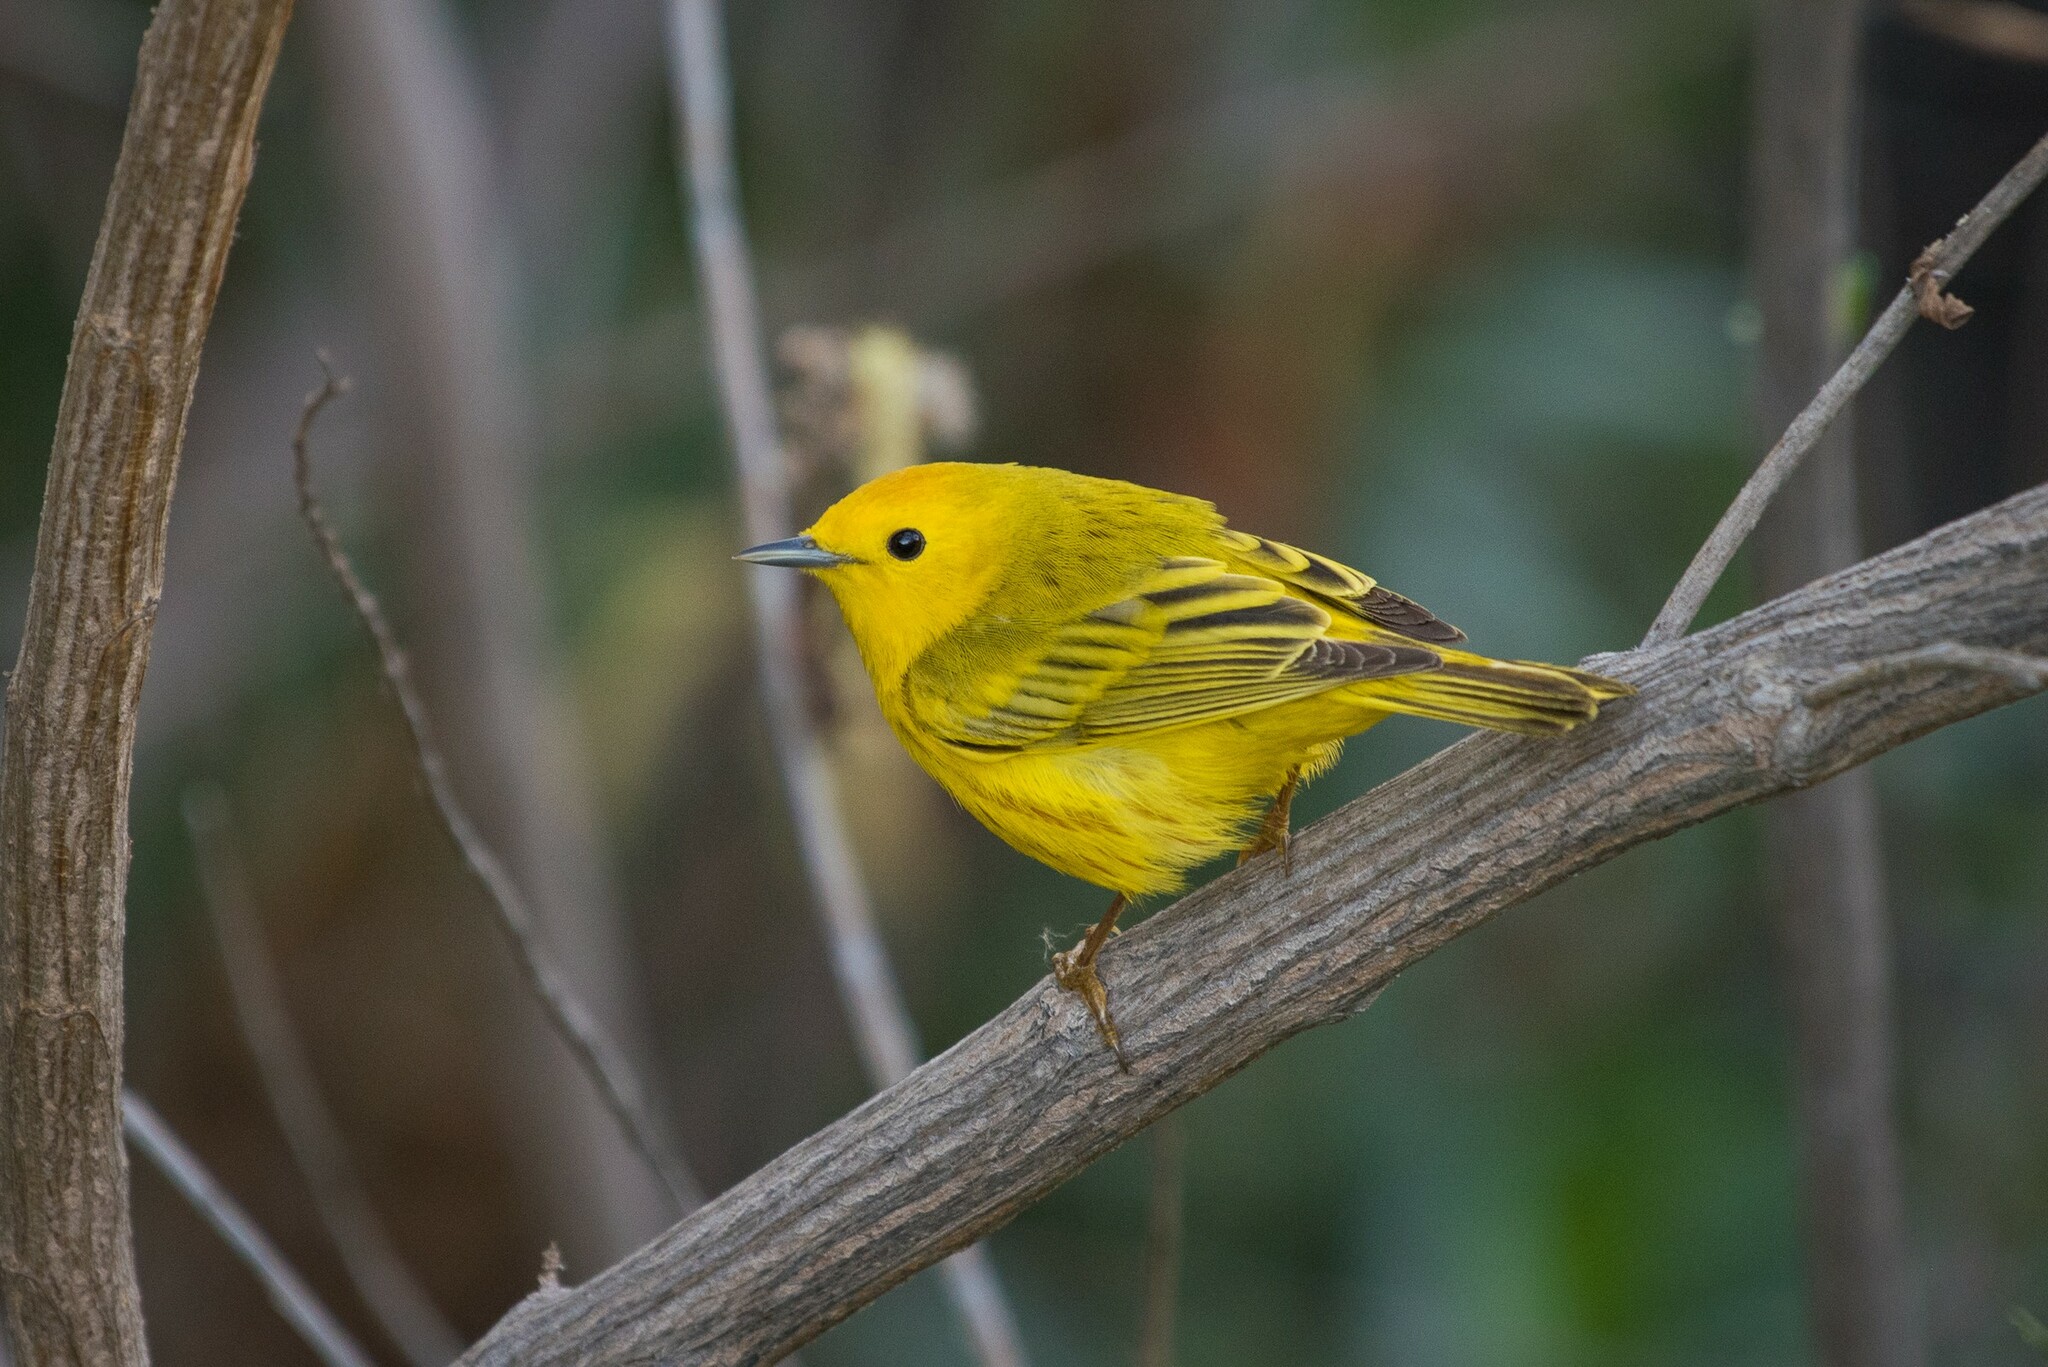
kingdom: Animalia
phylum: Chordata
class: Aves
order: Passeriformes
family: Parulidae
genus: Setophaga
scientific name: Setophaga petechia
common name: Yellow warbler
